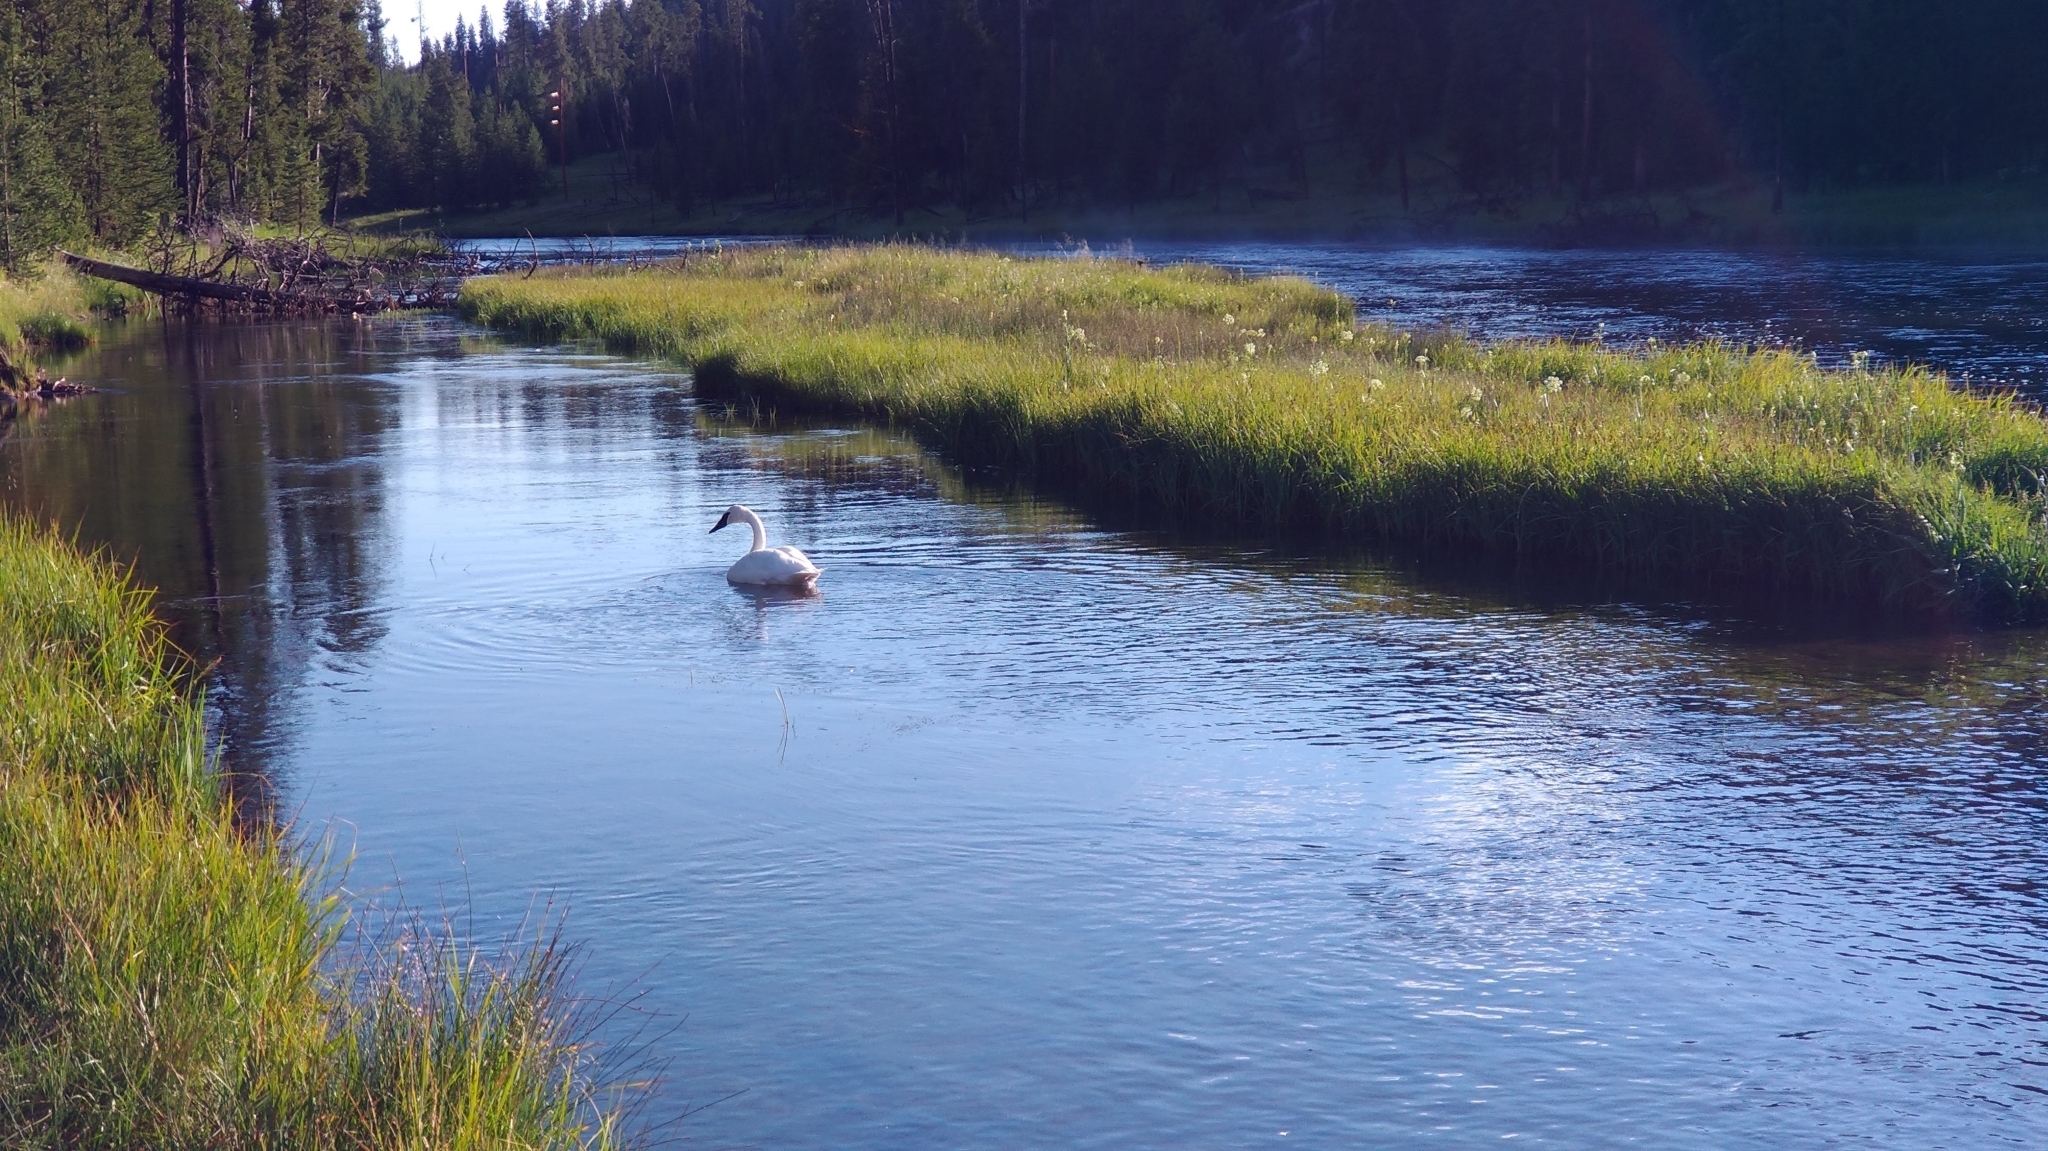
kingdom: Animalia
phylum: Chordata
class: Aves
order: Anseriformes
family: Anatidae
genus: Cygnus
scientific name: Cygnus buccinator
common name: Trumpeter swan
